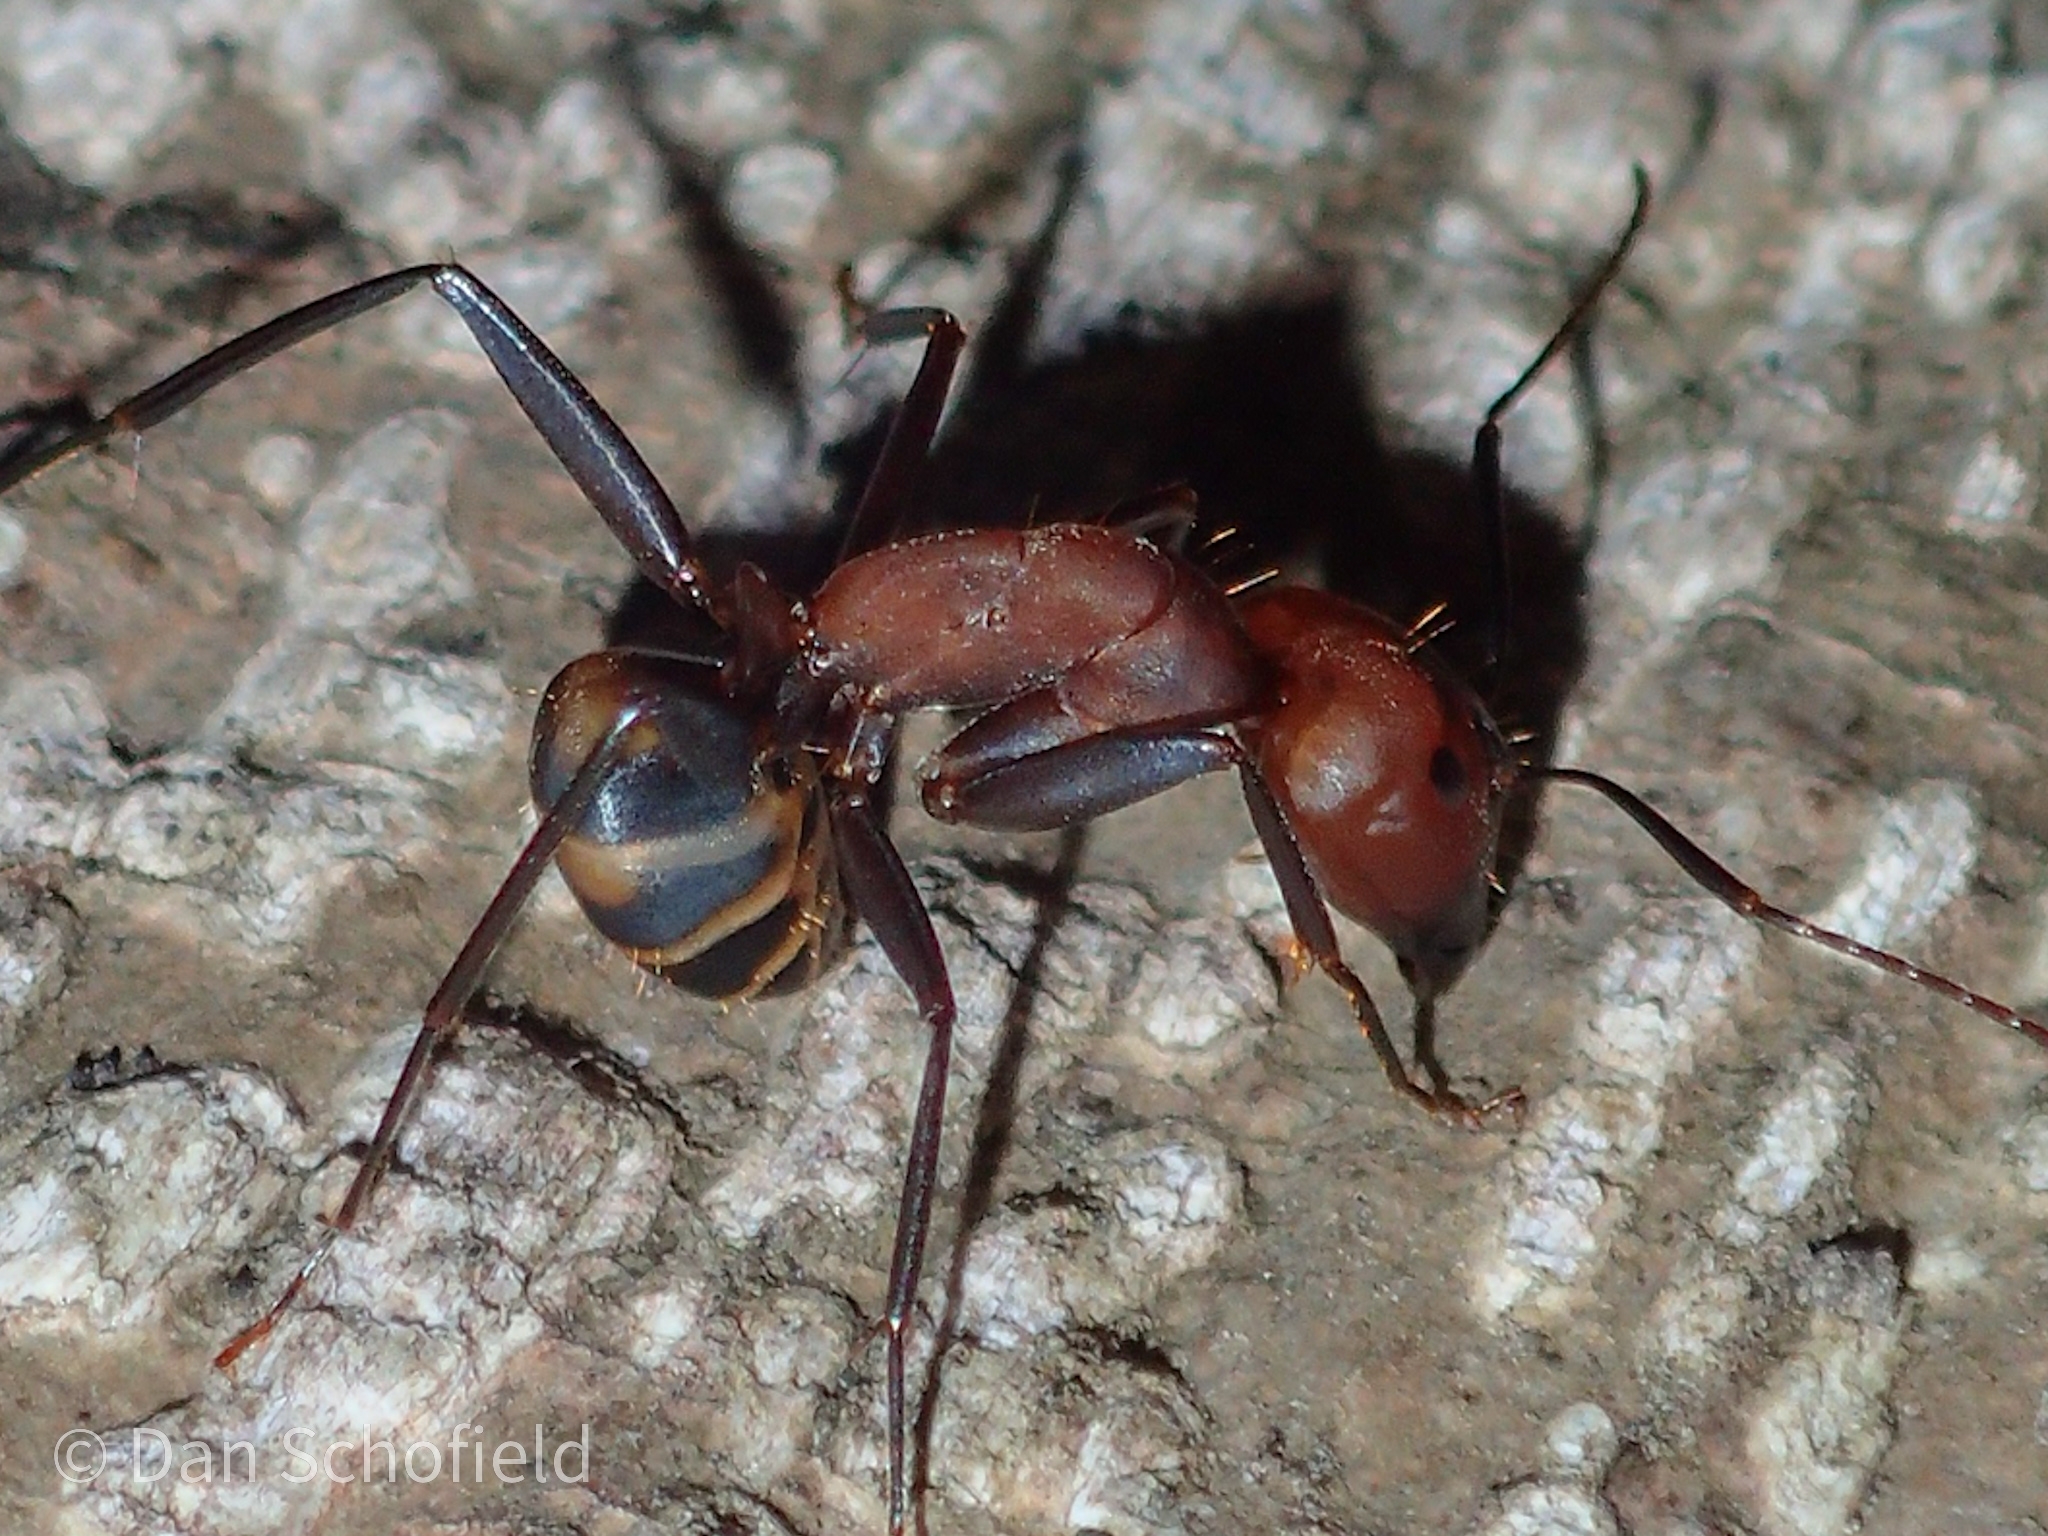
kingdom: Animalia
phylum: Arthropoda
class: Insecta
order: Hymenoptera
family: Formicidae
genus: Camponotus
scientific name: Camponotus habereri
